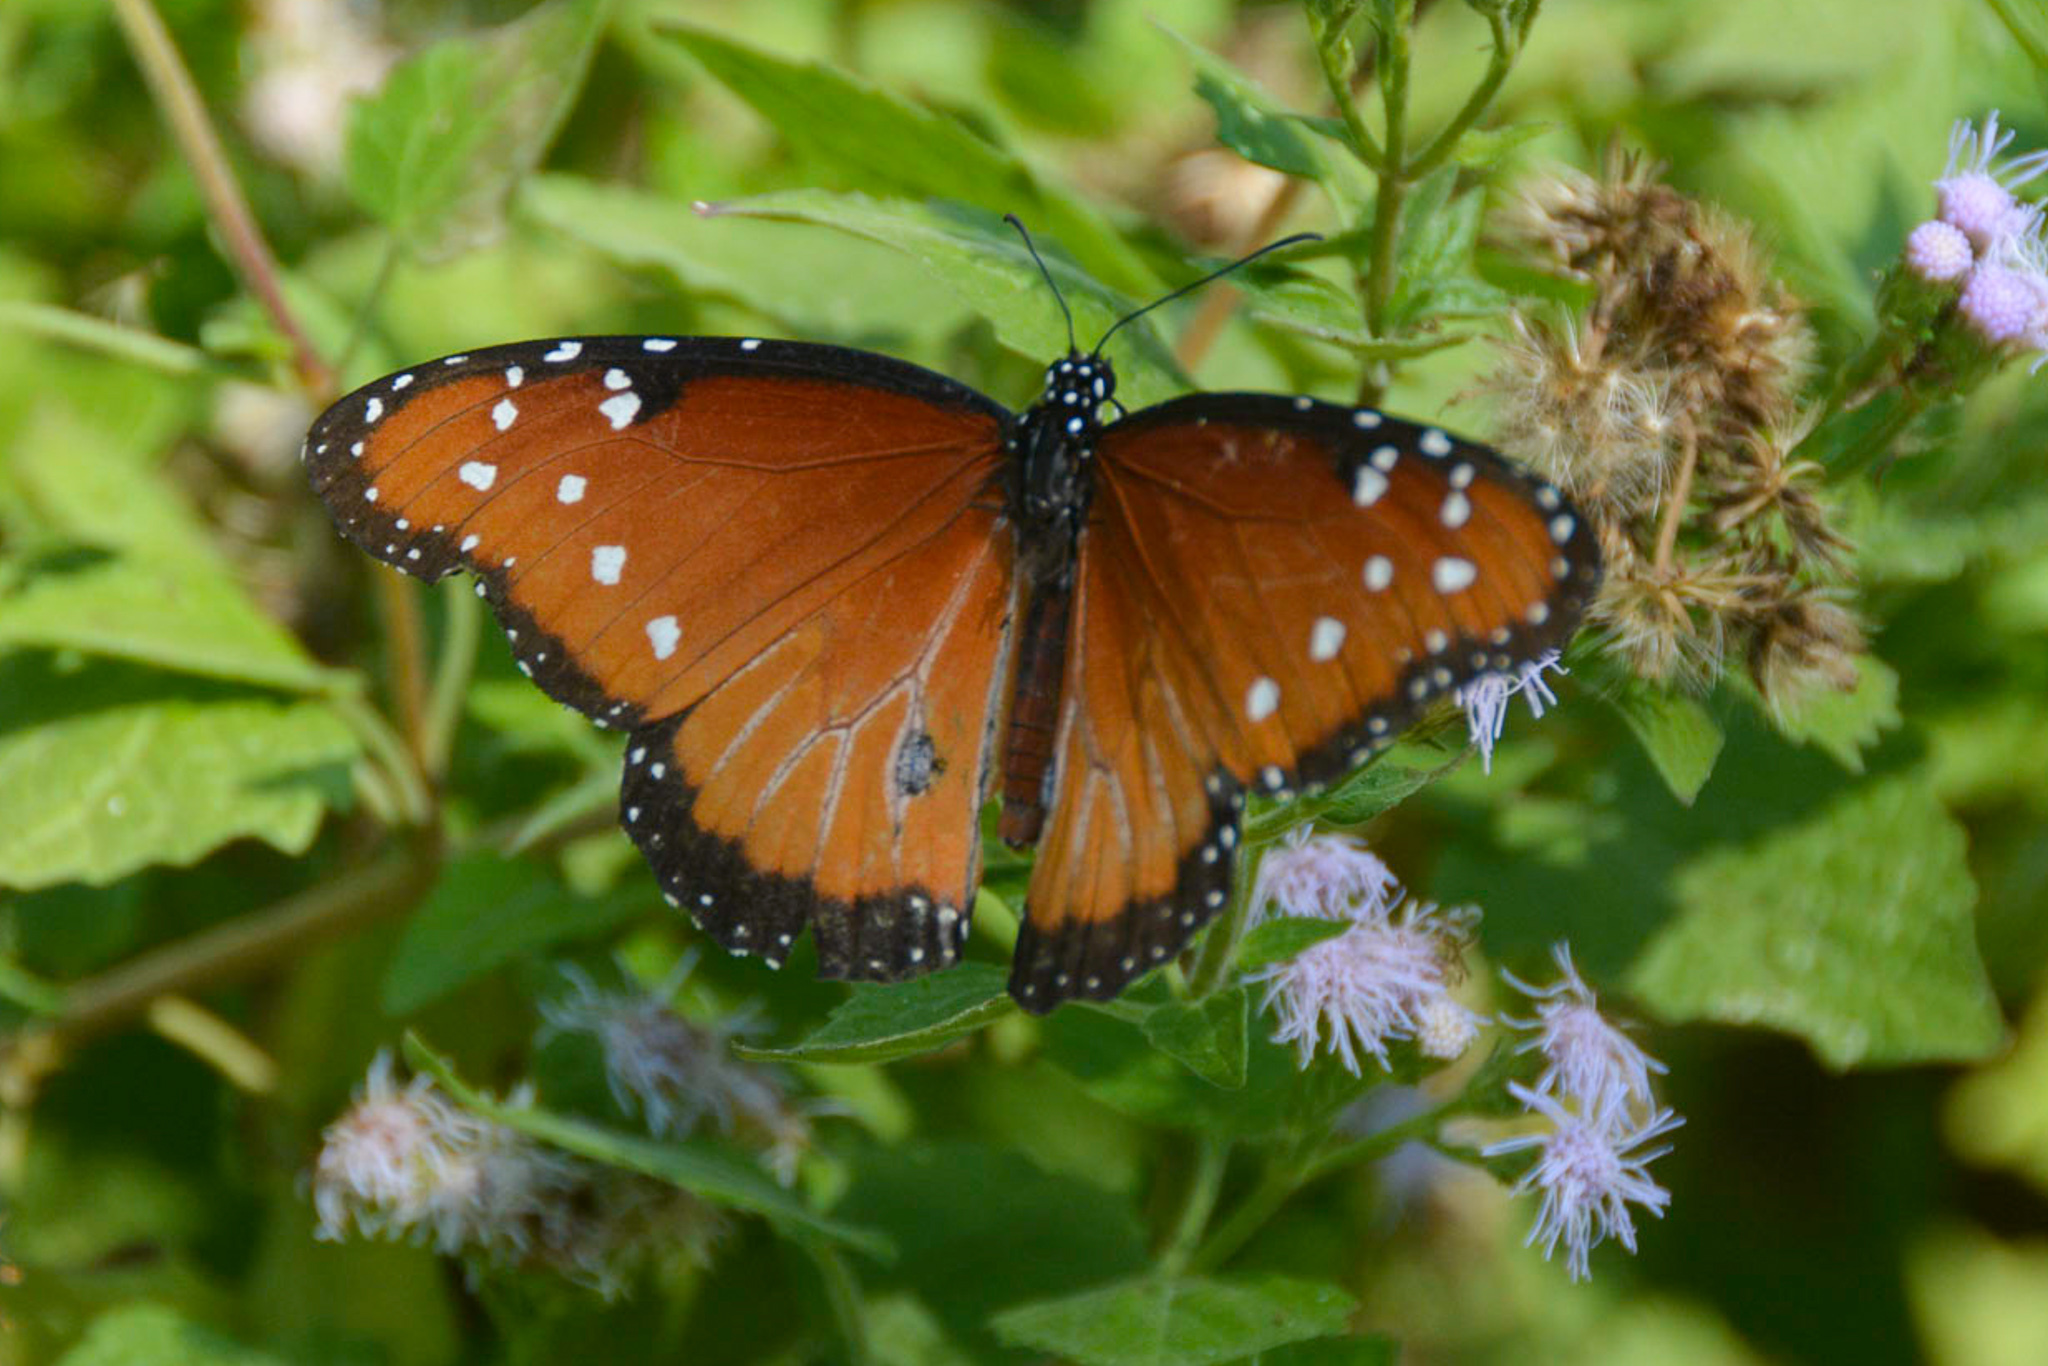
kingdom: Animalia
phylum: Arthropoda
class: Insecta
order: Lepidoptera
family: Nymphalidae
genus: Danaus
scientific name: Danaus gilippus
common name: Queen
